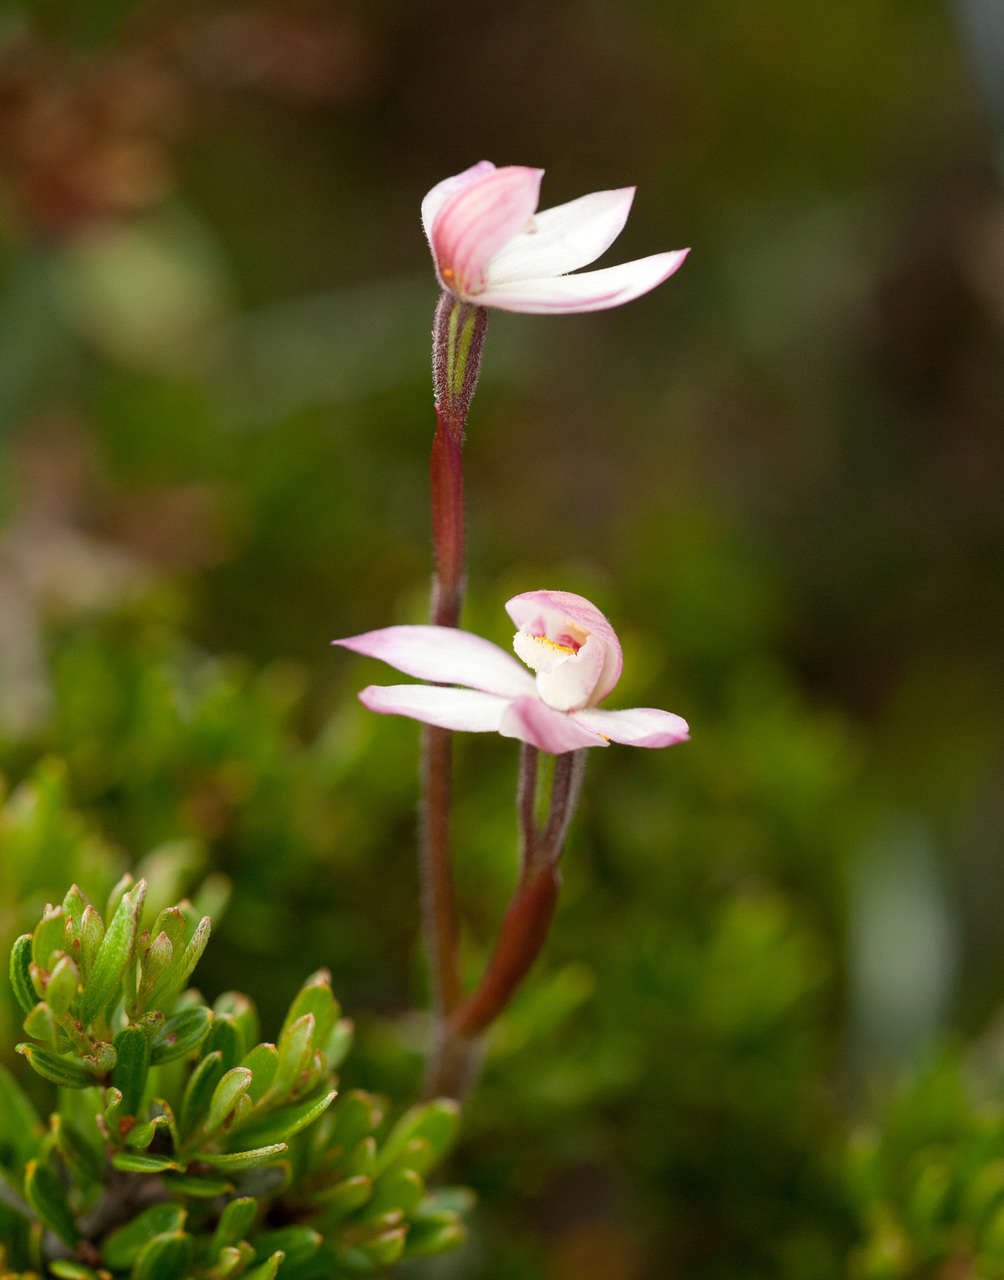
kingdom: Plantae
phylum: Tracheophyta
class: Liliopsida
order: Asparagales
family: Orchidaceae
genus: Caladenia
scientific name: Caladenia alpina
